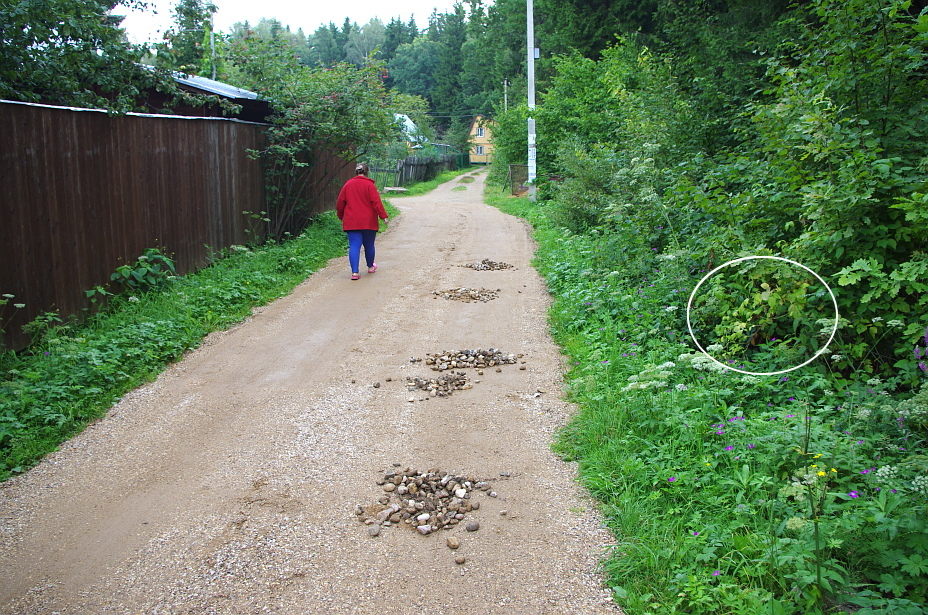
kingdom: Plantae
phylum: Tracheophyta
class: Magnoliopsida
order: Rosales
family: Rosaceae
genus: Rubus
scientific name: Rubus idaeus
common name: Raspberry
